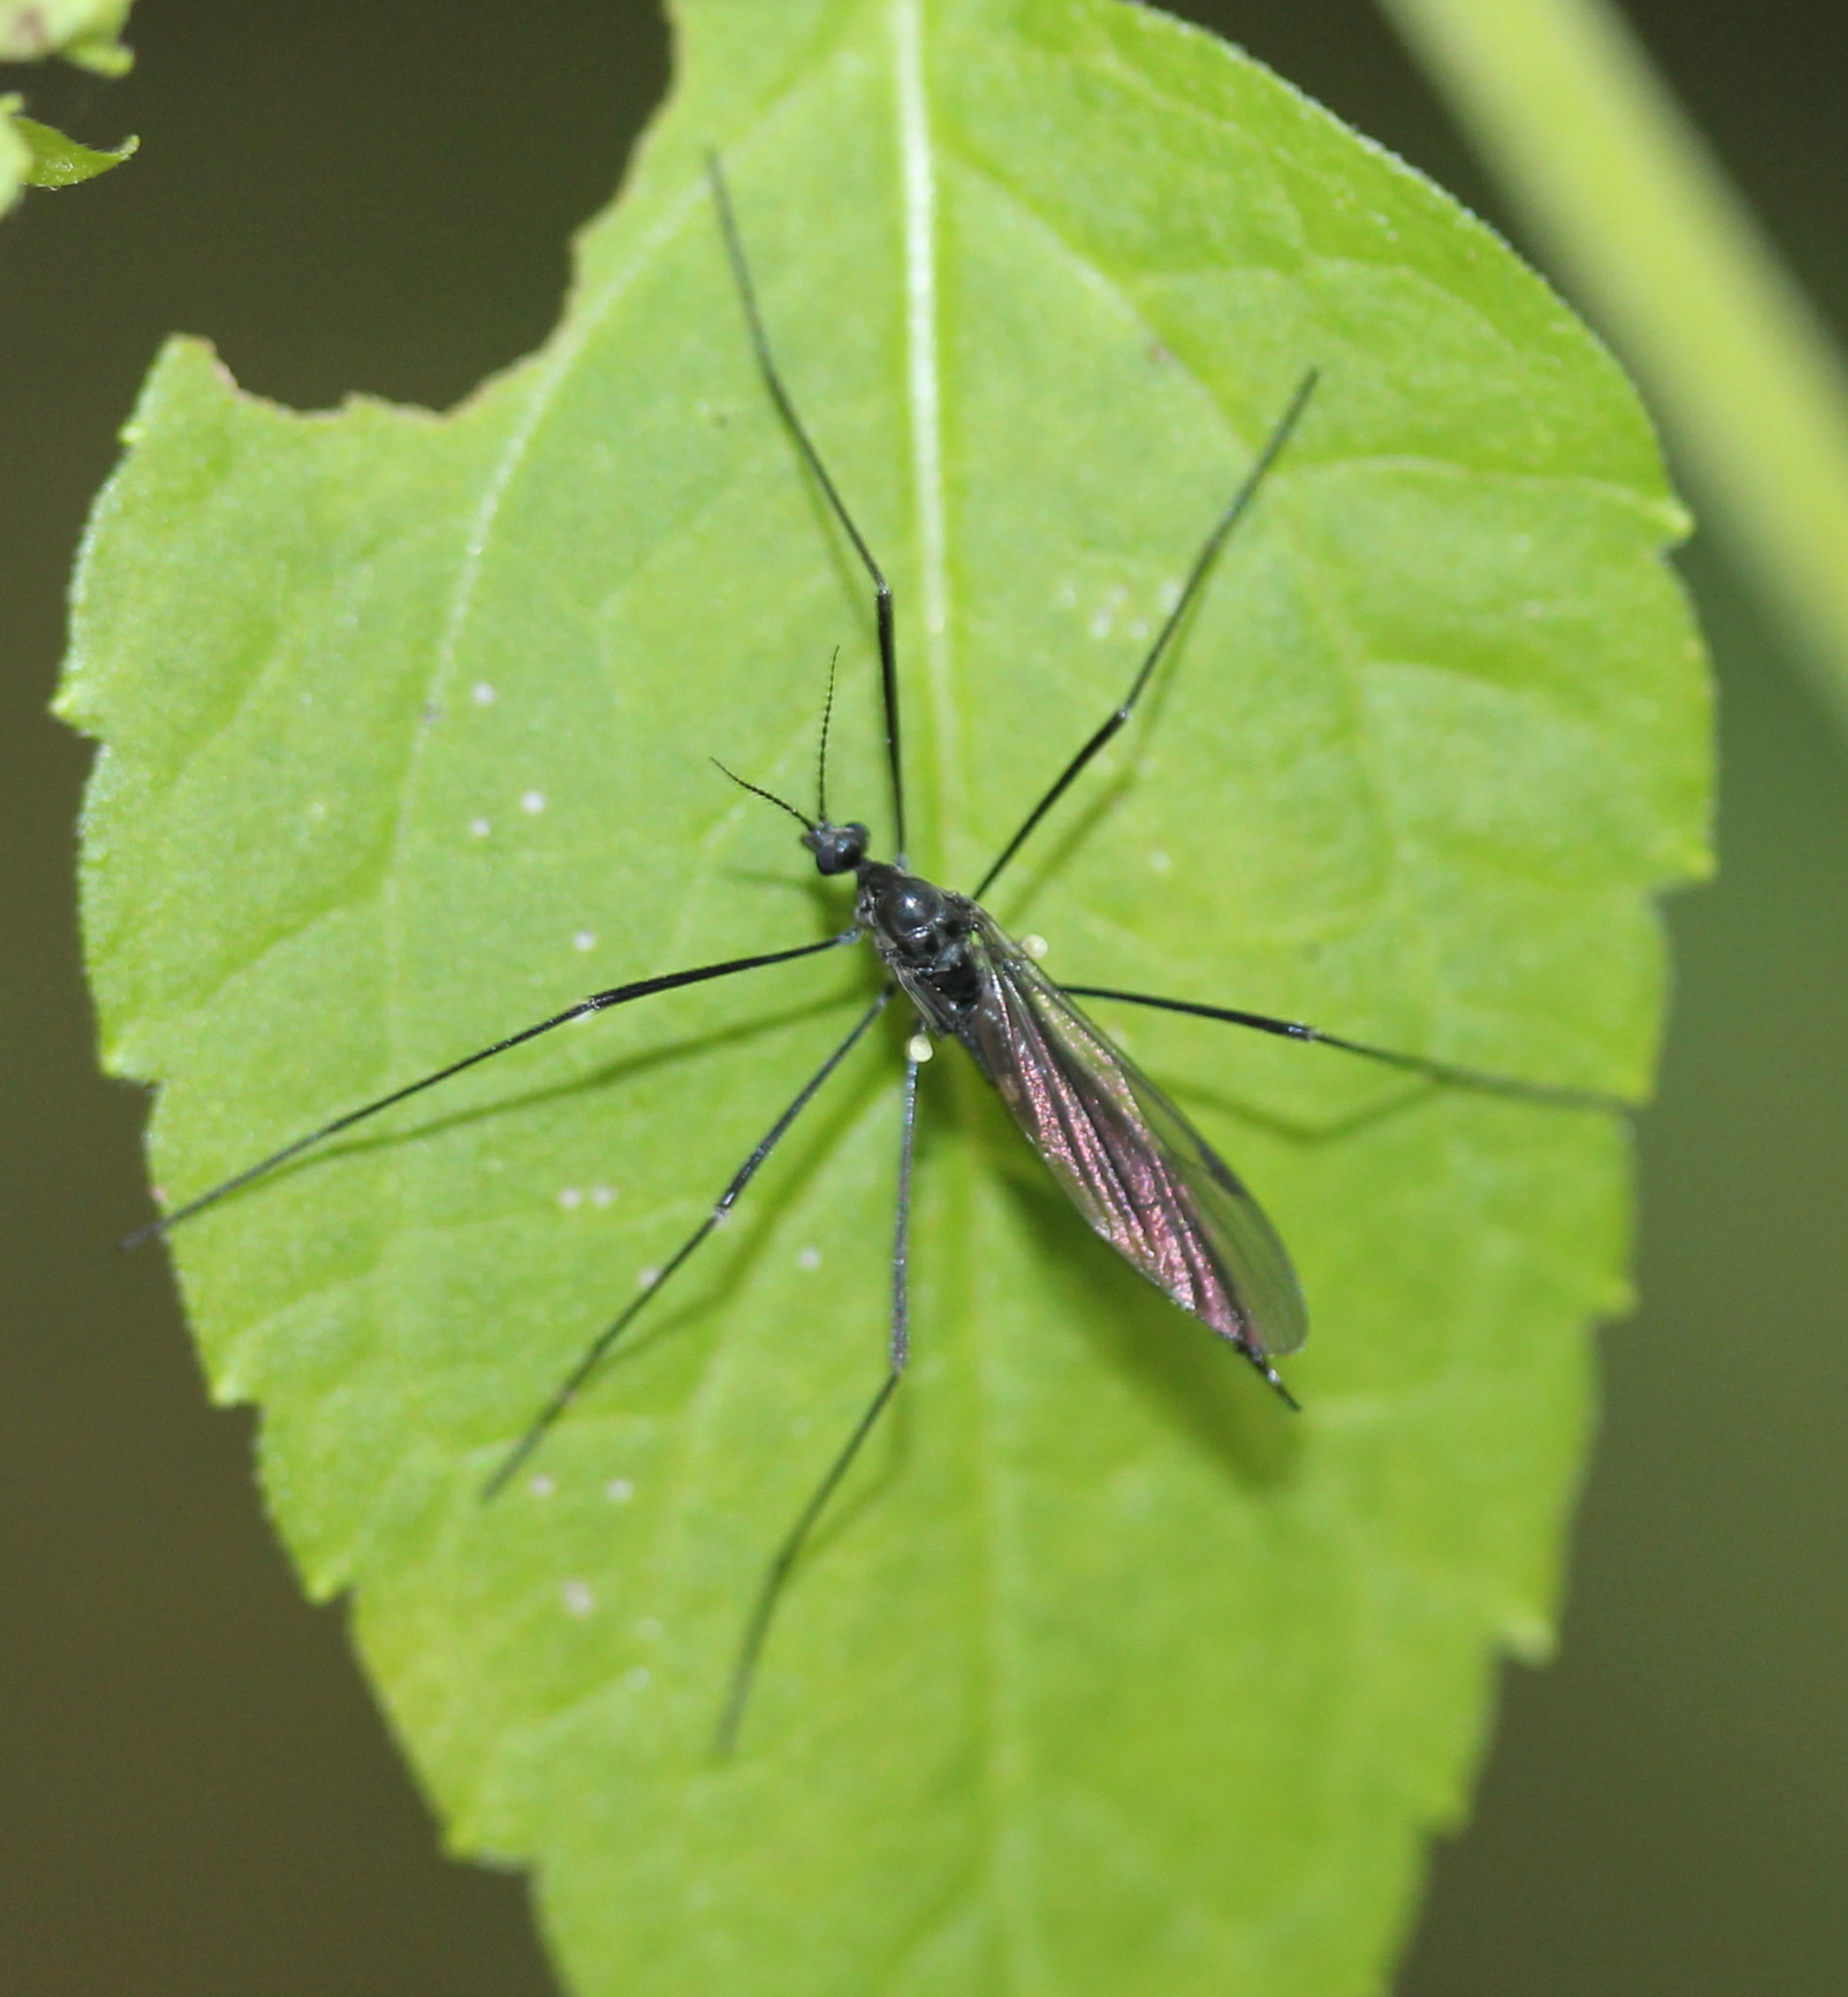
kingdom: Animalia
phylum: Arthropoda
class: Insecta
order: Diptera
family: Limoniidae
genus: Gnophomyia
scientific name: Gnophomyia tristissima
